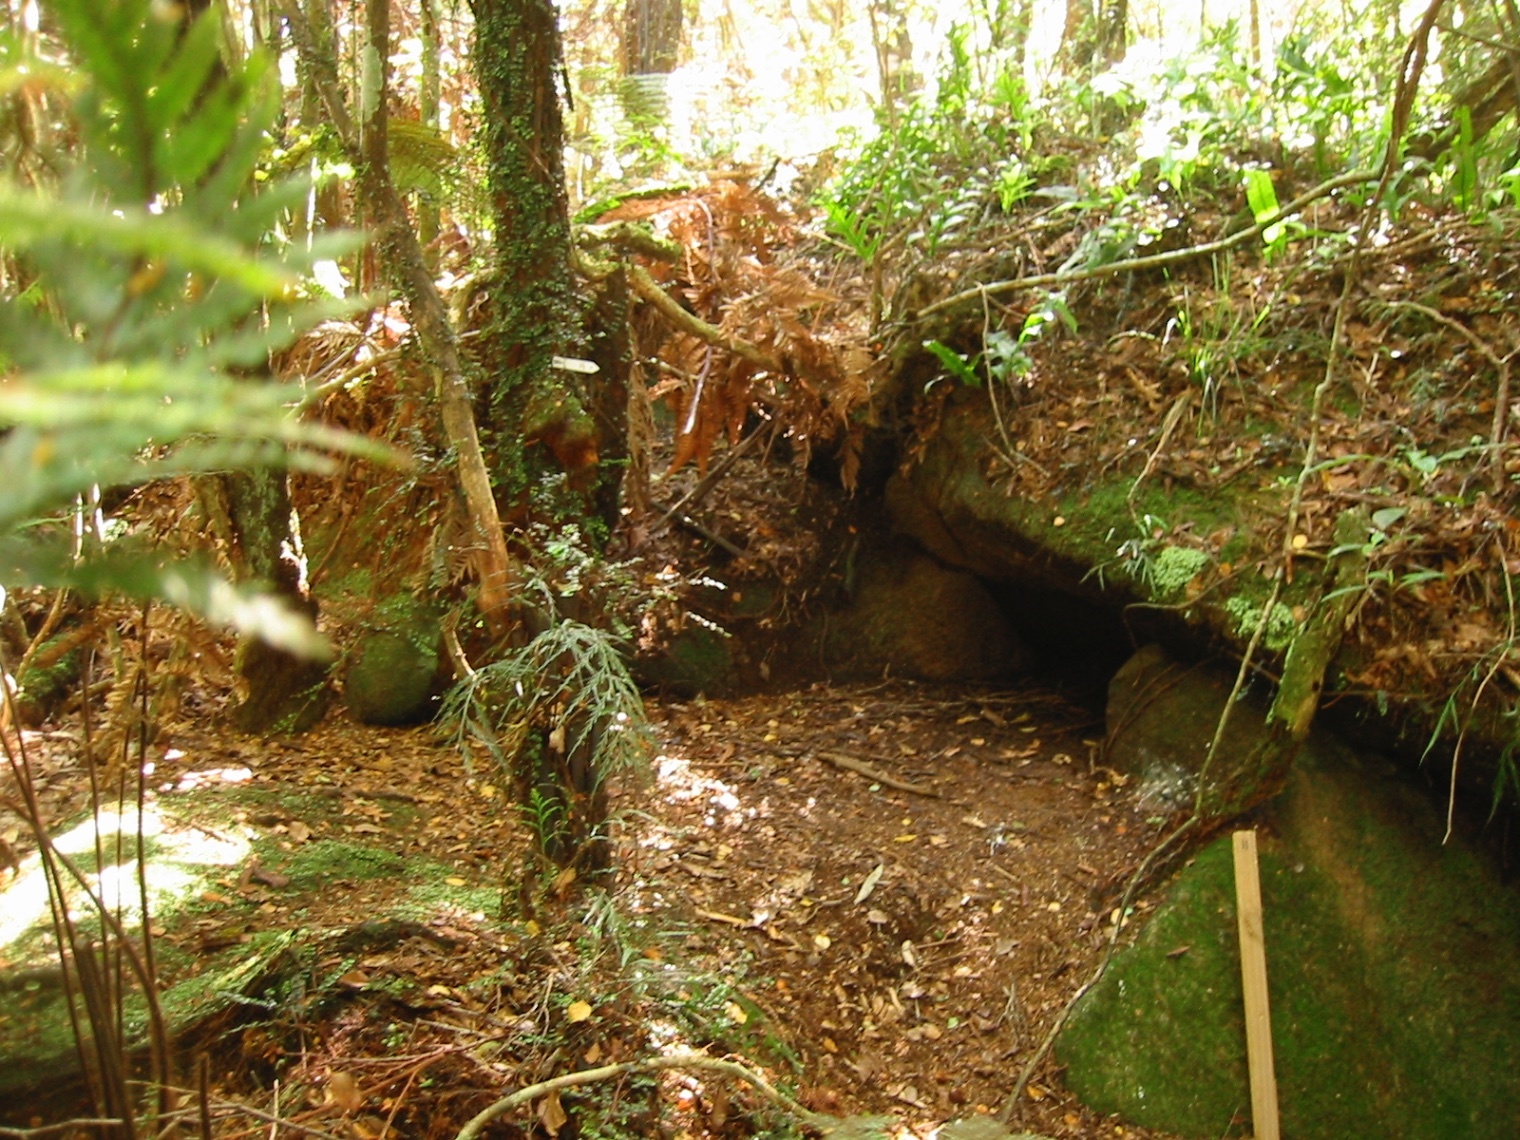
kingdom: Animalia
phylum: Chordata
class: Aves
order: Sphenisciformes
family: Spheniscidae
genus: Eudyptula
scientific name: Eudyptula minor
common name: Little penguin
